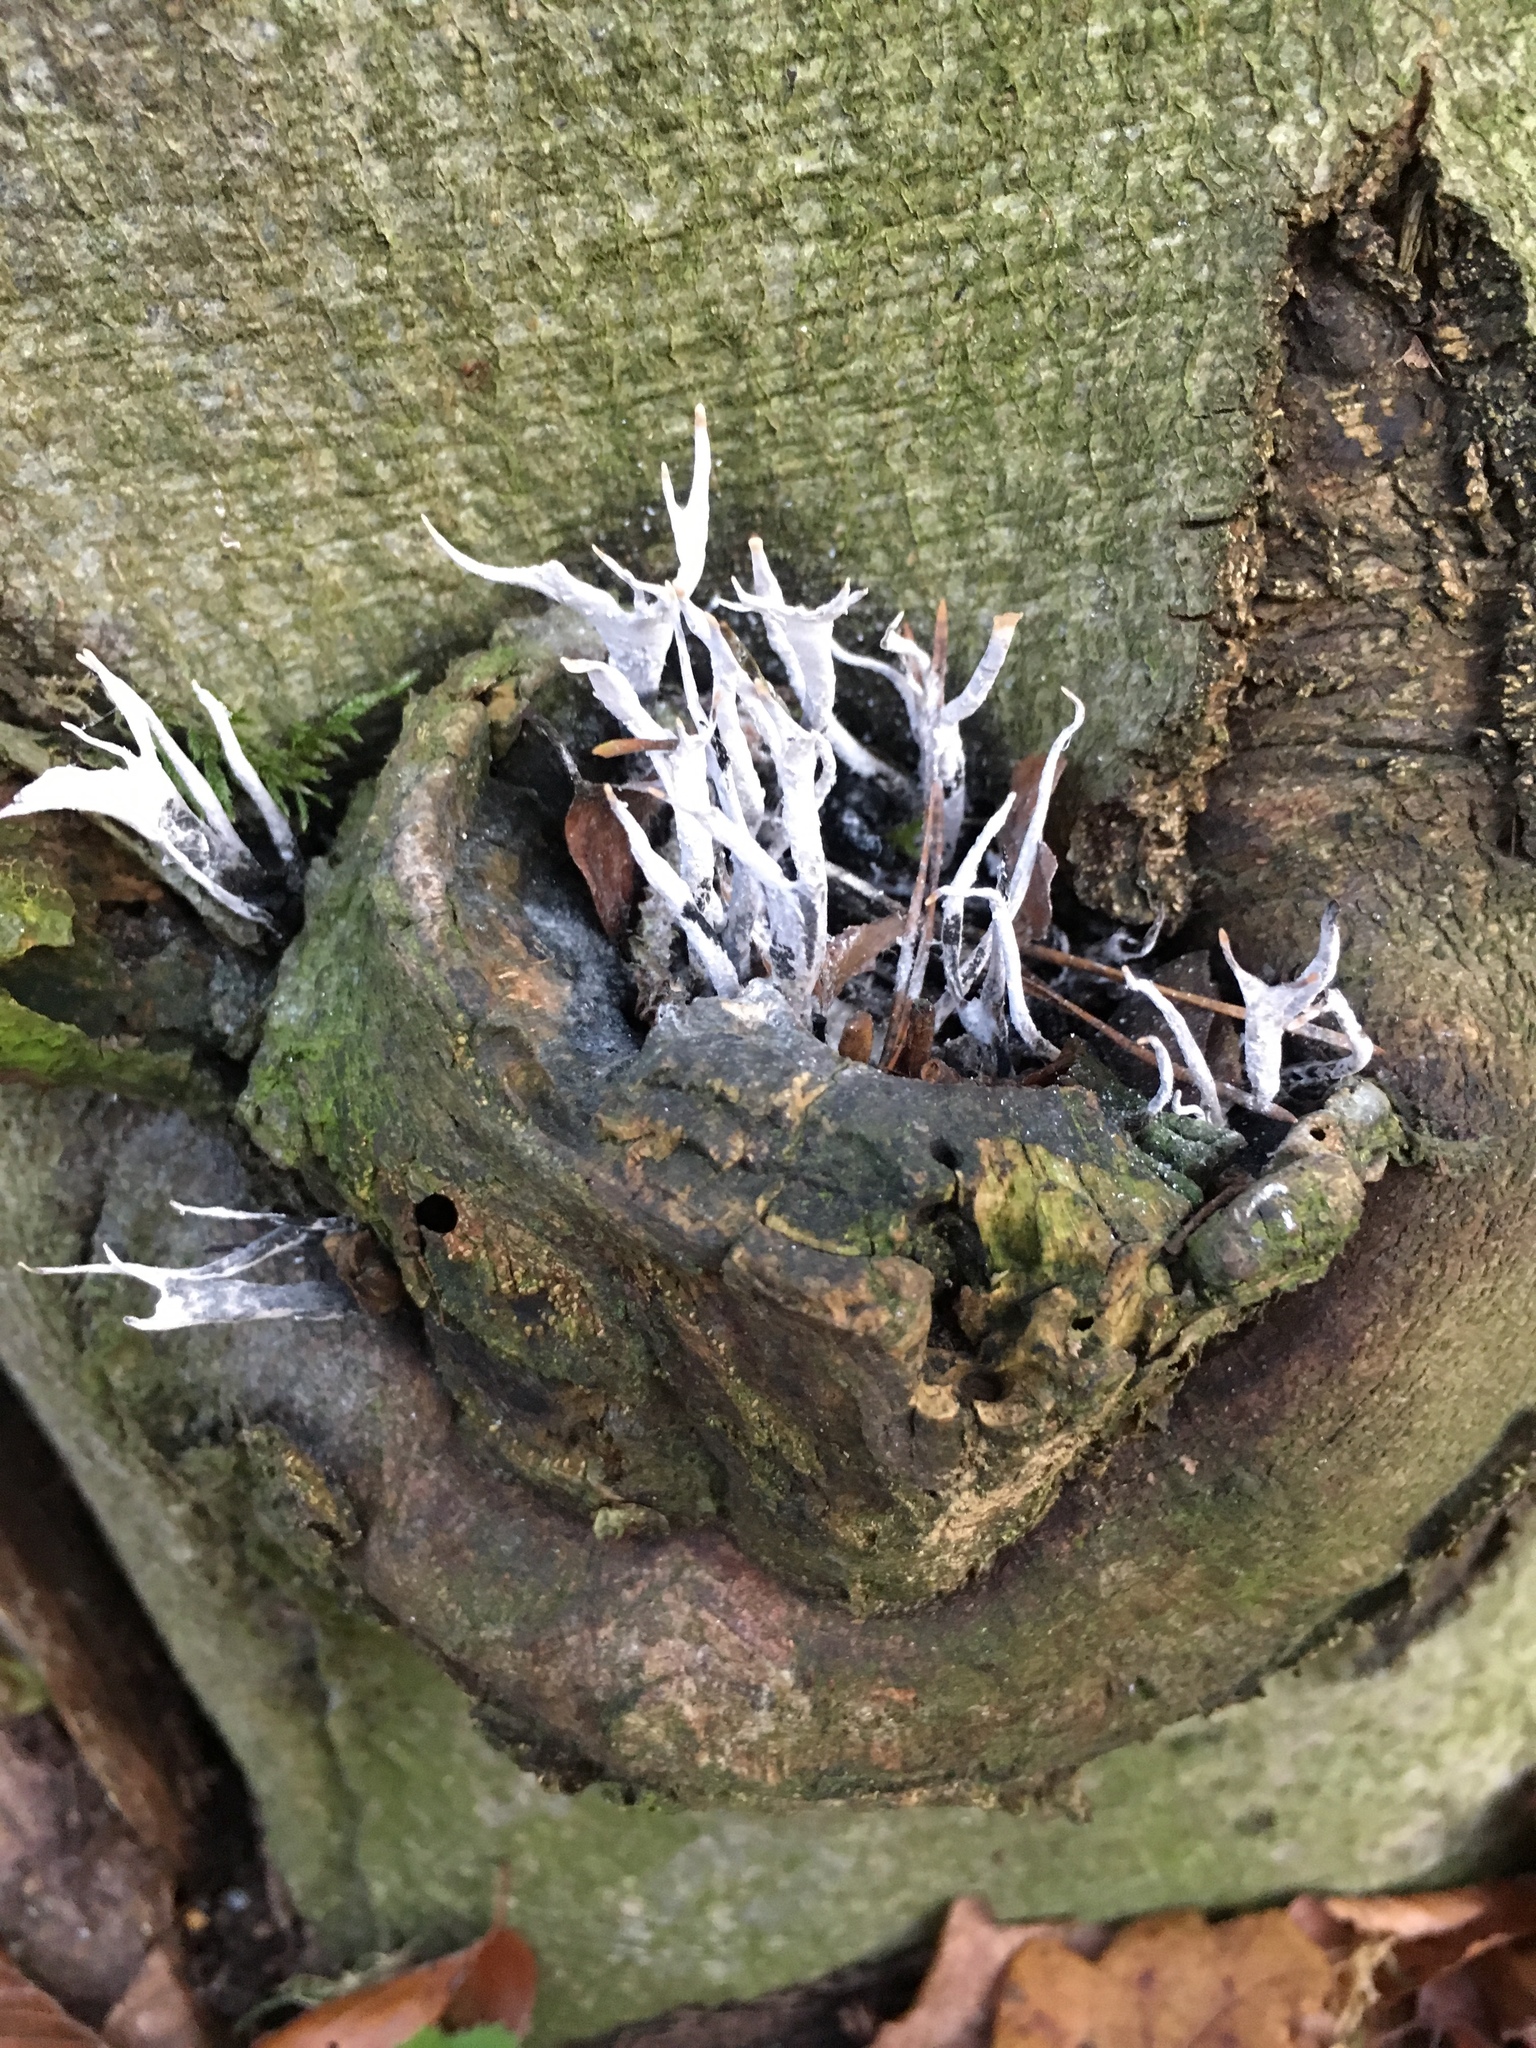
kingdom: Fungi
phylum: Ascomycota
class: Sordariomycetes
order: Xylariales
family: Xylariaceae
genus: Xylaria
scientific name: Xylaria hypoxylon
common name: Candle-snuff fungus
